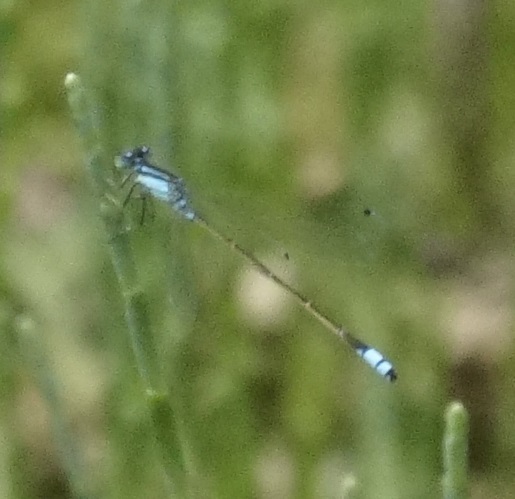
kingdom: Animalia
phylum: Arthropoda
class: Insecta
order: Odonata
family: Coenagrionidae
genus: Ischnura
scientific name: Ischnura heterosticta
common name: Common bluetail
